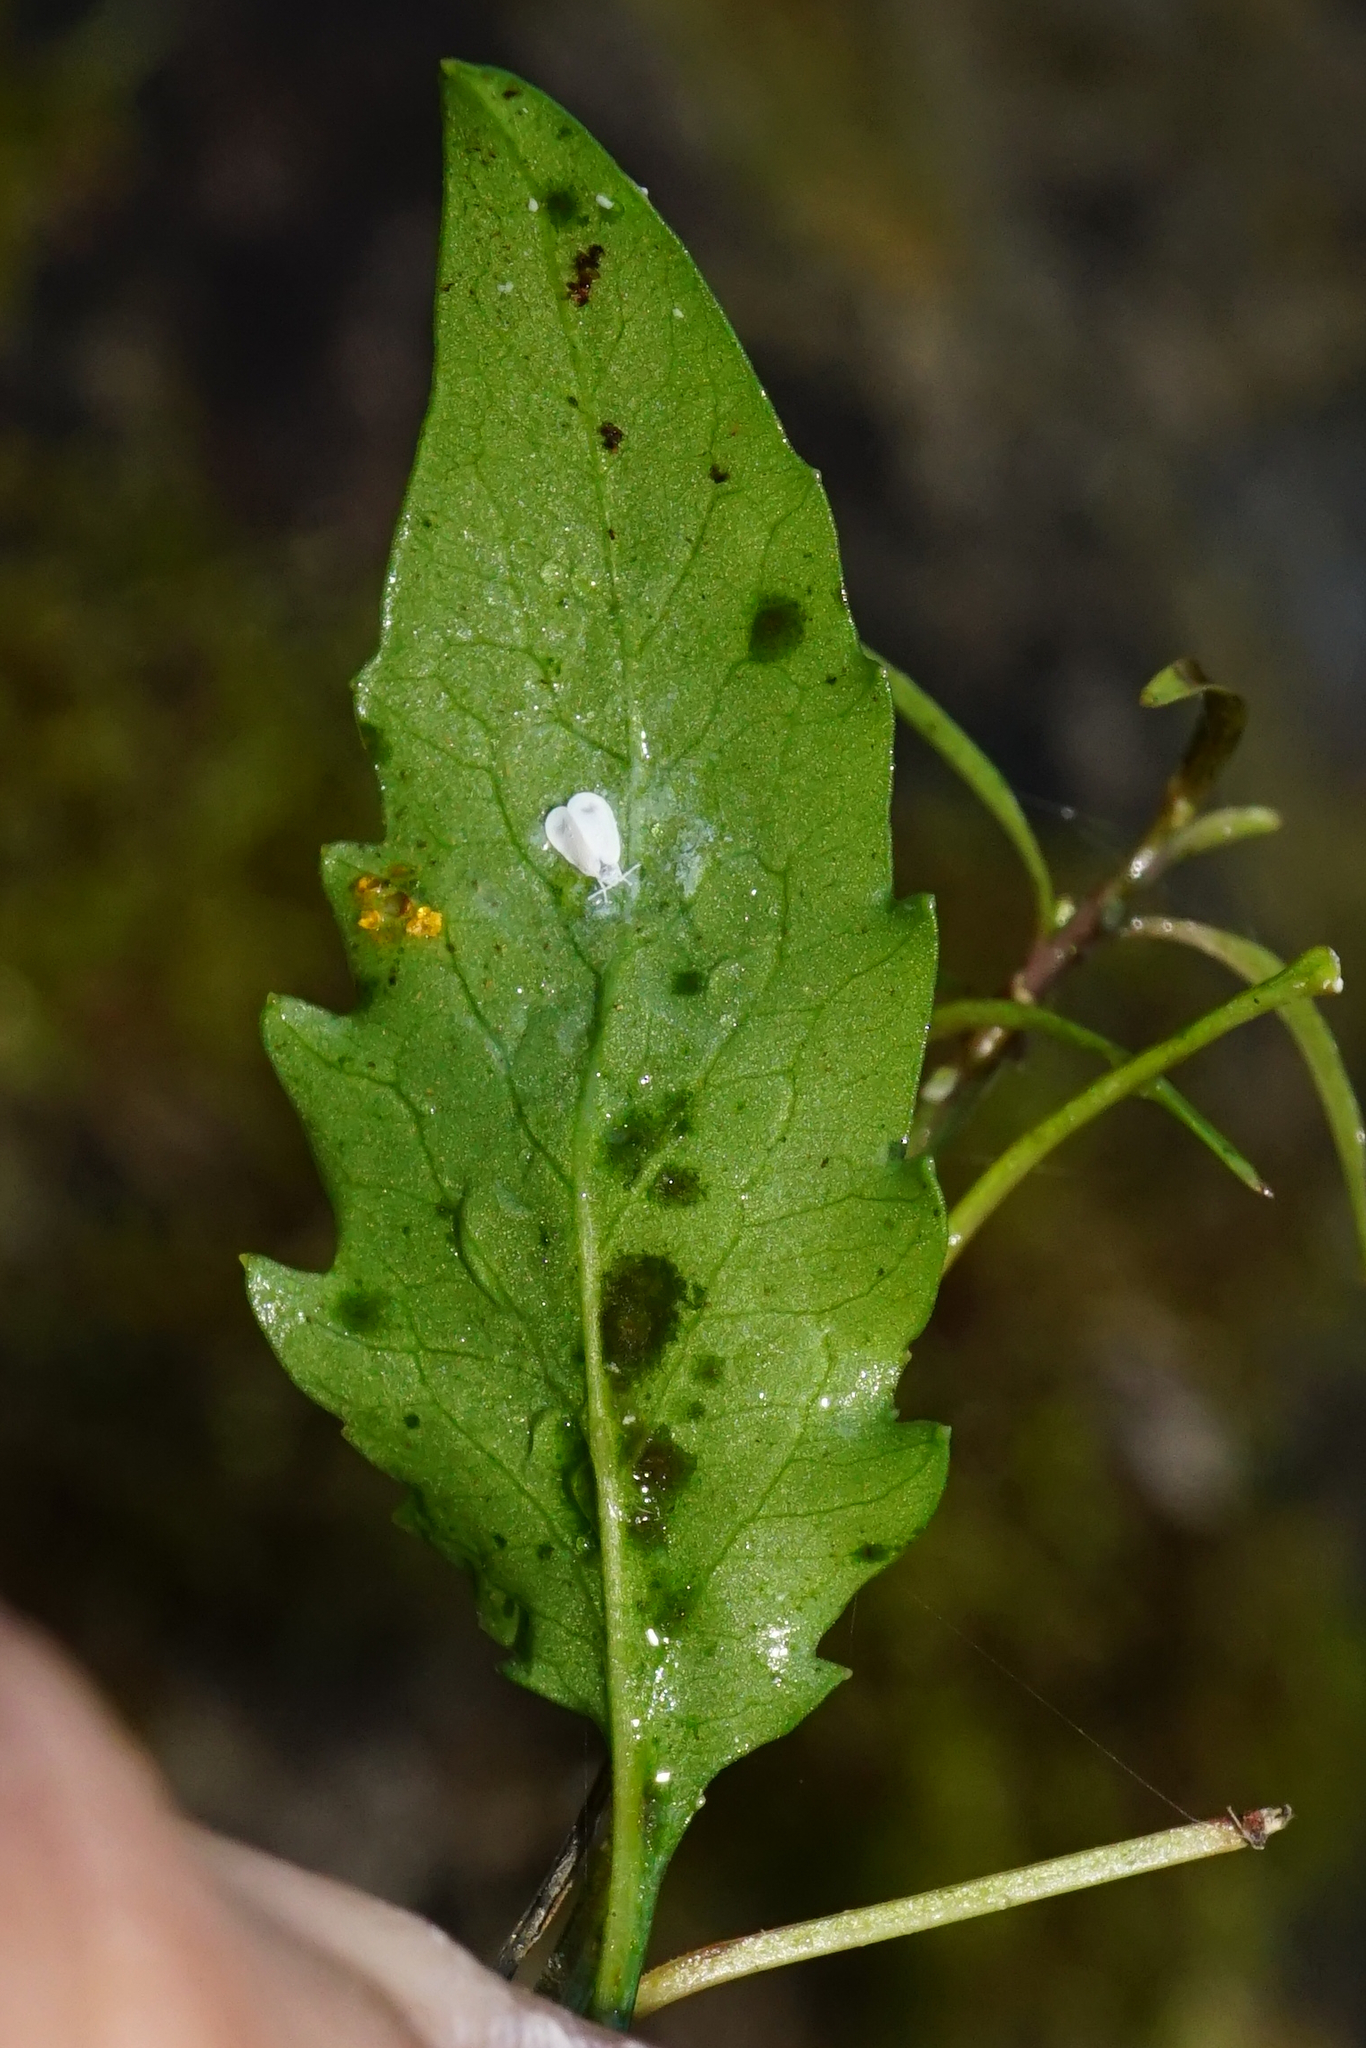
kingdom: Plantae
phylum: Tracheophyta
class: Magnoliopsida
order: Asterales
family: Campanulaceae
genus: Campanula
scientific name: Campanula rotundifolia
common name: Harebell
